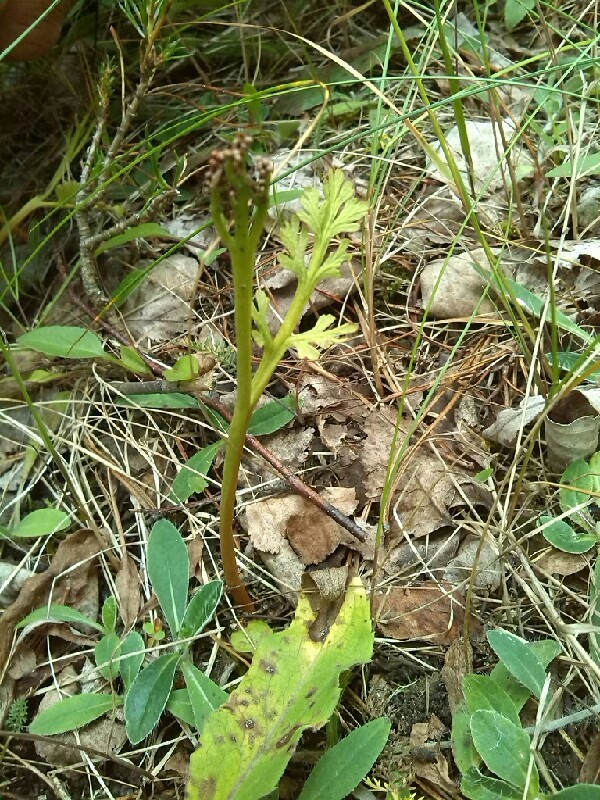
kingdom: Plantae
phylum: Tracheophyta
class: Polypodiopsida
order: Ophioglossales
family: Ophioglossaceae
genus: Botrychium
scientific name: Botrychium matricariifolium
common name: Branched moonwort
